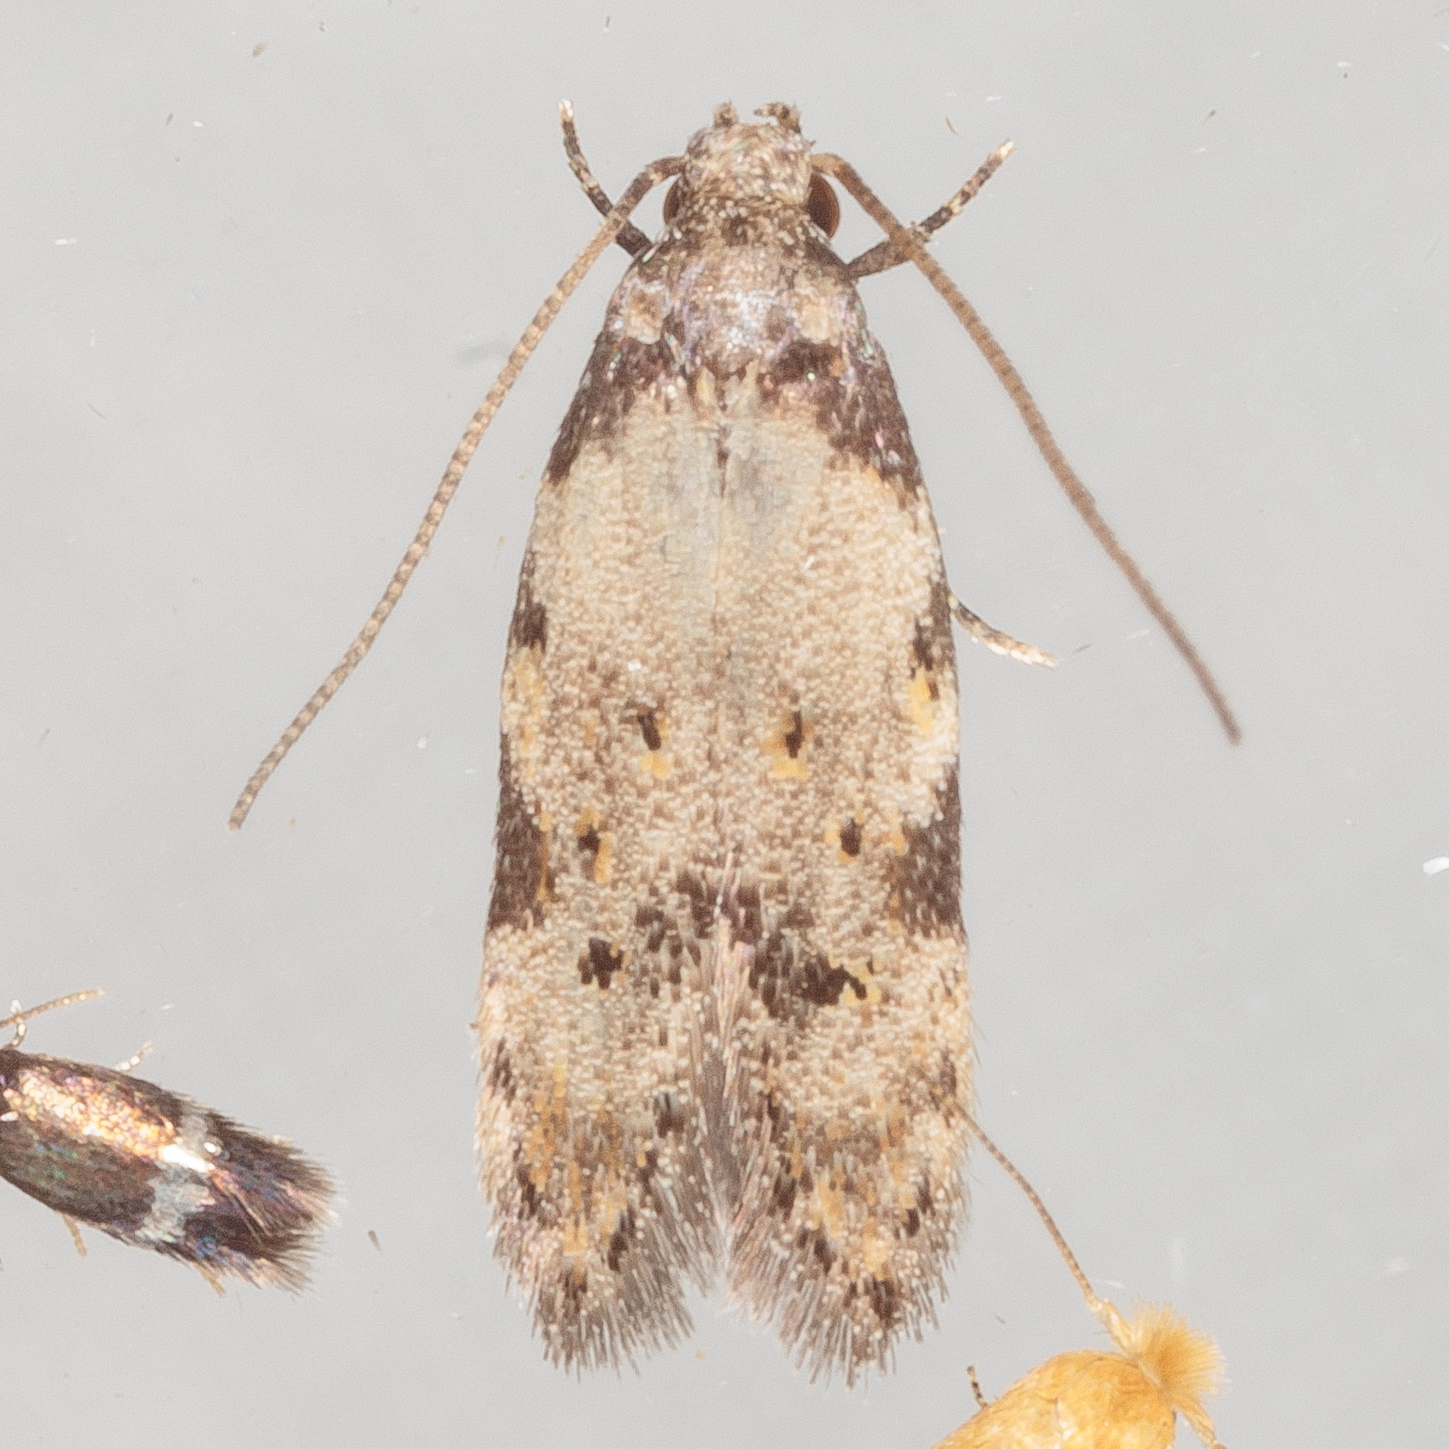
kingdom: Animalia
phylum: Arthropoda
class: Insecta
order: Lepidoptera
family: Autostichidae
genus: Taygete
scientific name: Taygete attributella
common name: Triangle-marked twirler moth
